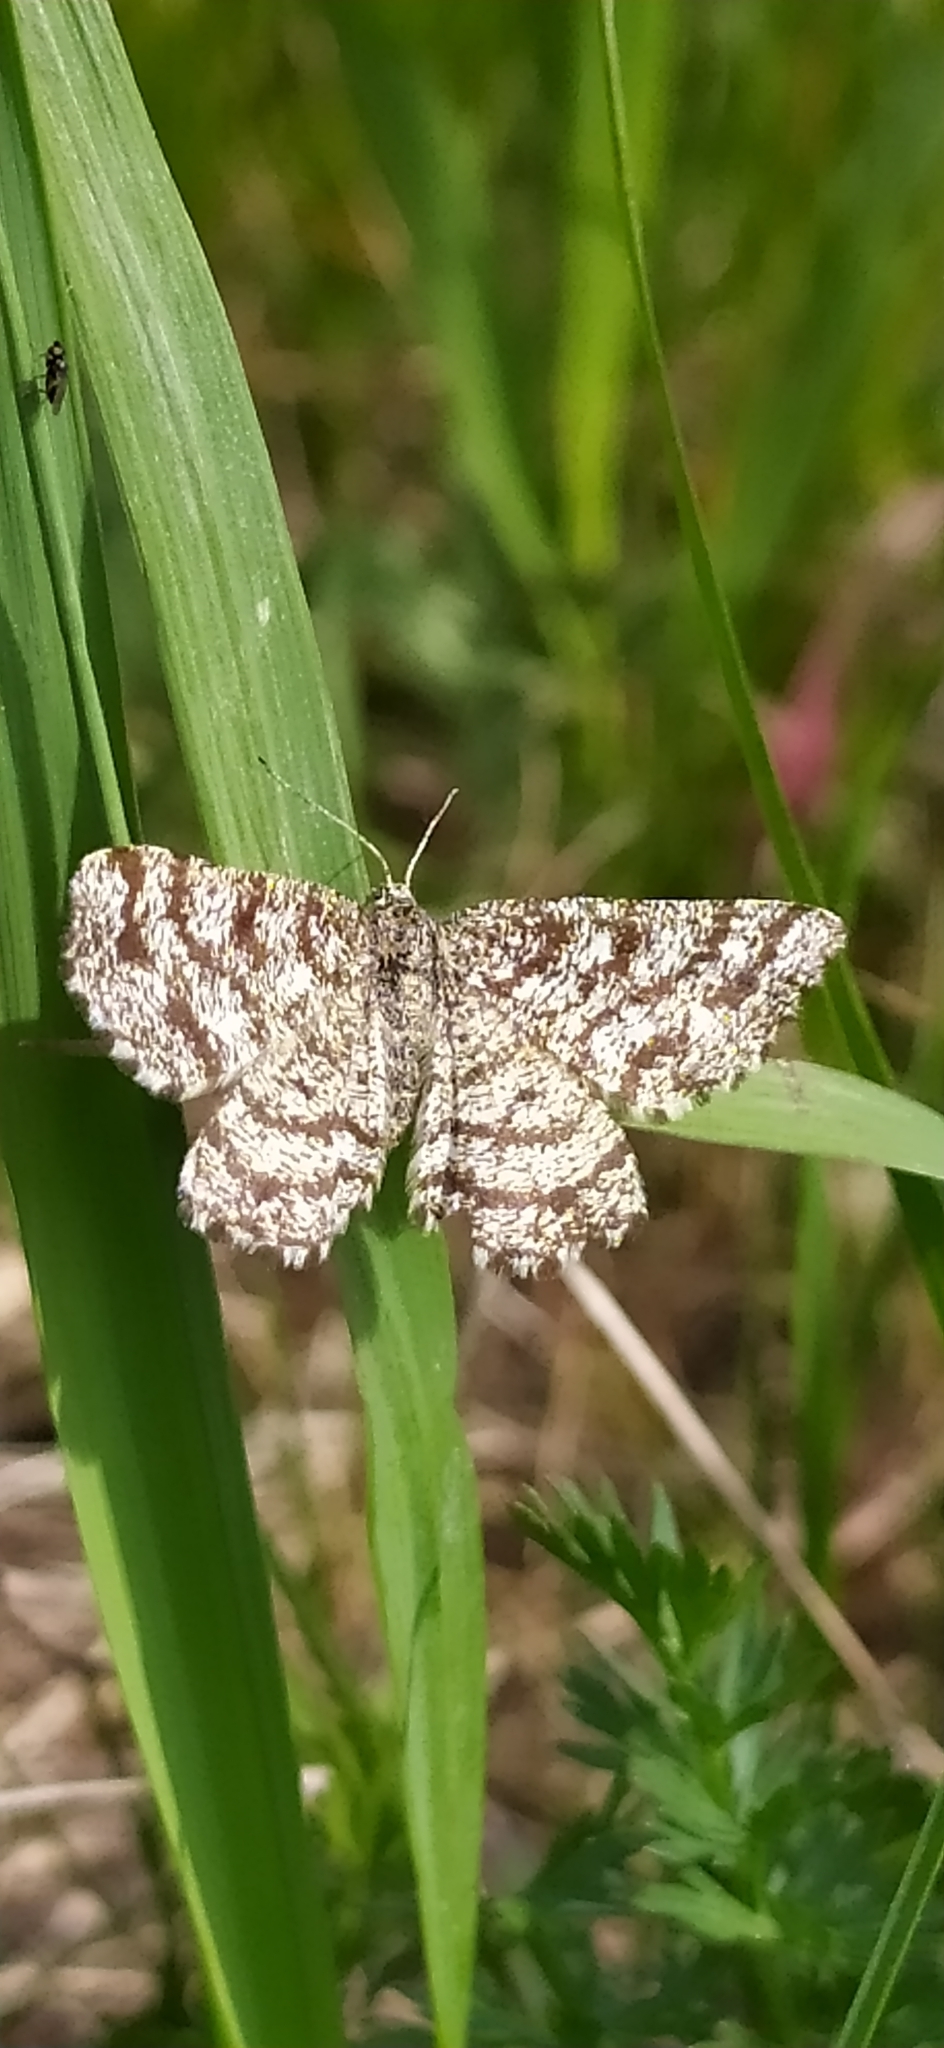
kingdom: Animalia
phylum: Arthropoda
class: Insecta
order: Lepidoptera
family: Geometridae
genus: Ematurga
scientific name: Ematurga atomaria
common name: Common heath
